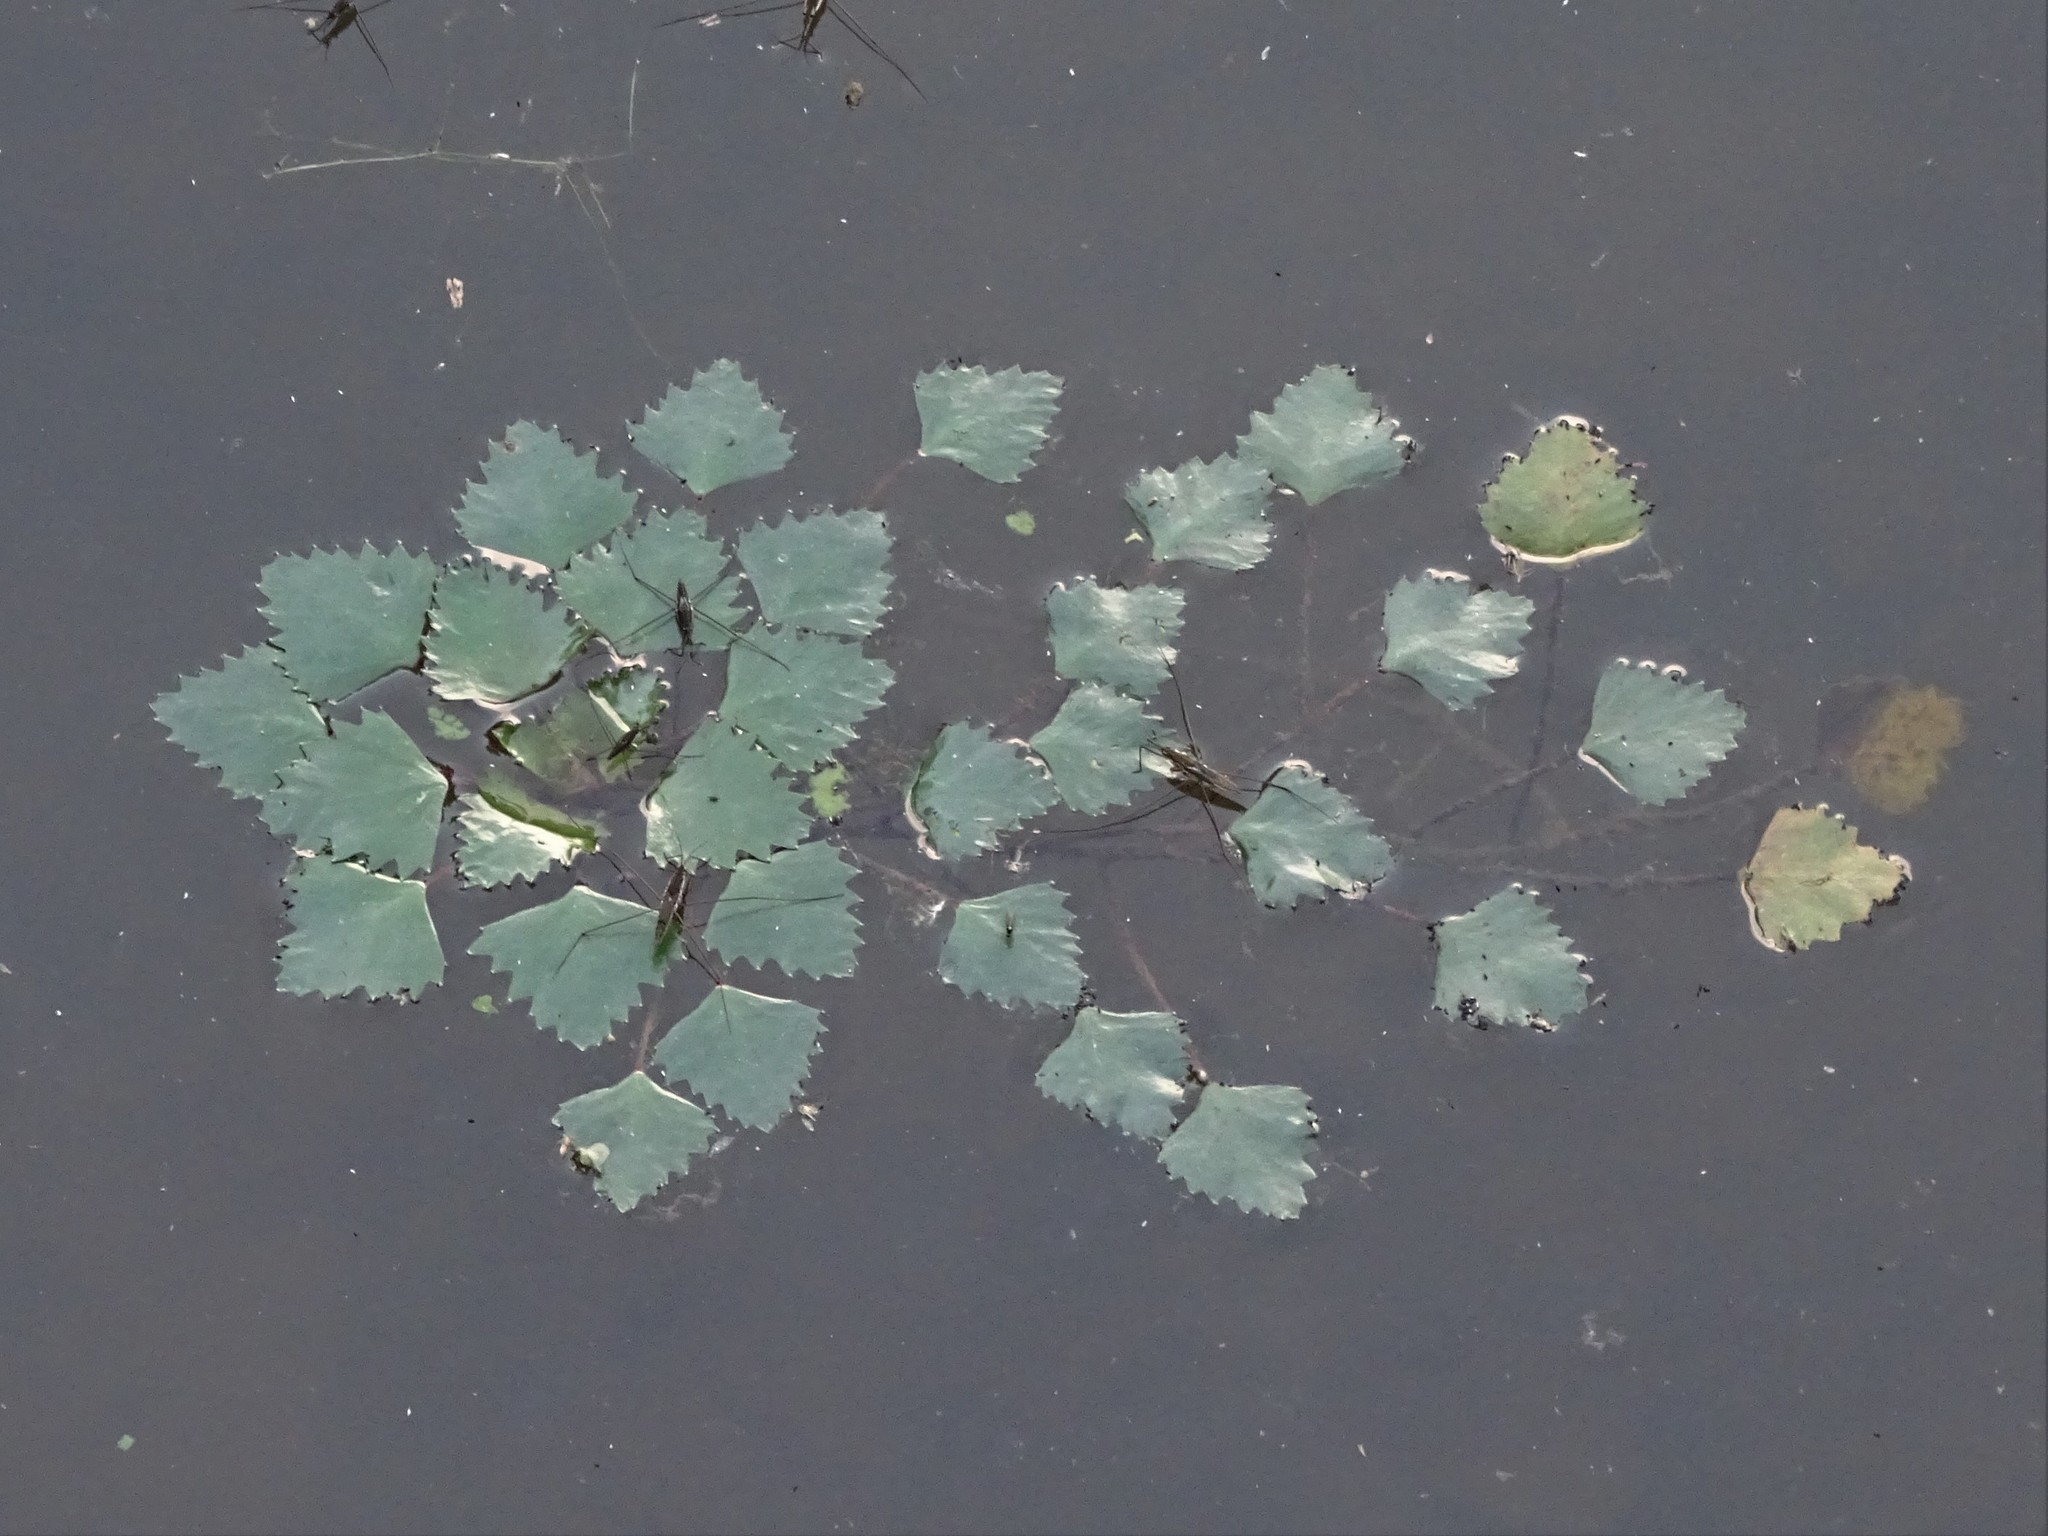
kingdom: Plantae
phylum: Tracheophyta
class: Magnoliopsida
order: Myrtales
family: Lythraceae
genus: Trapa
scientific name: Trapa natans
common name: Water chestnut
